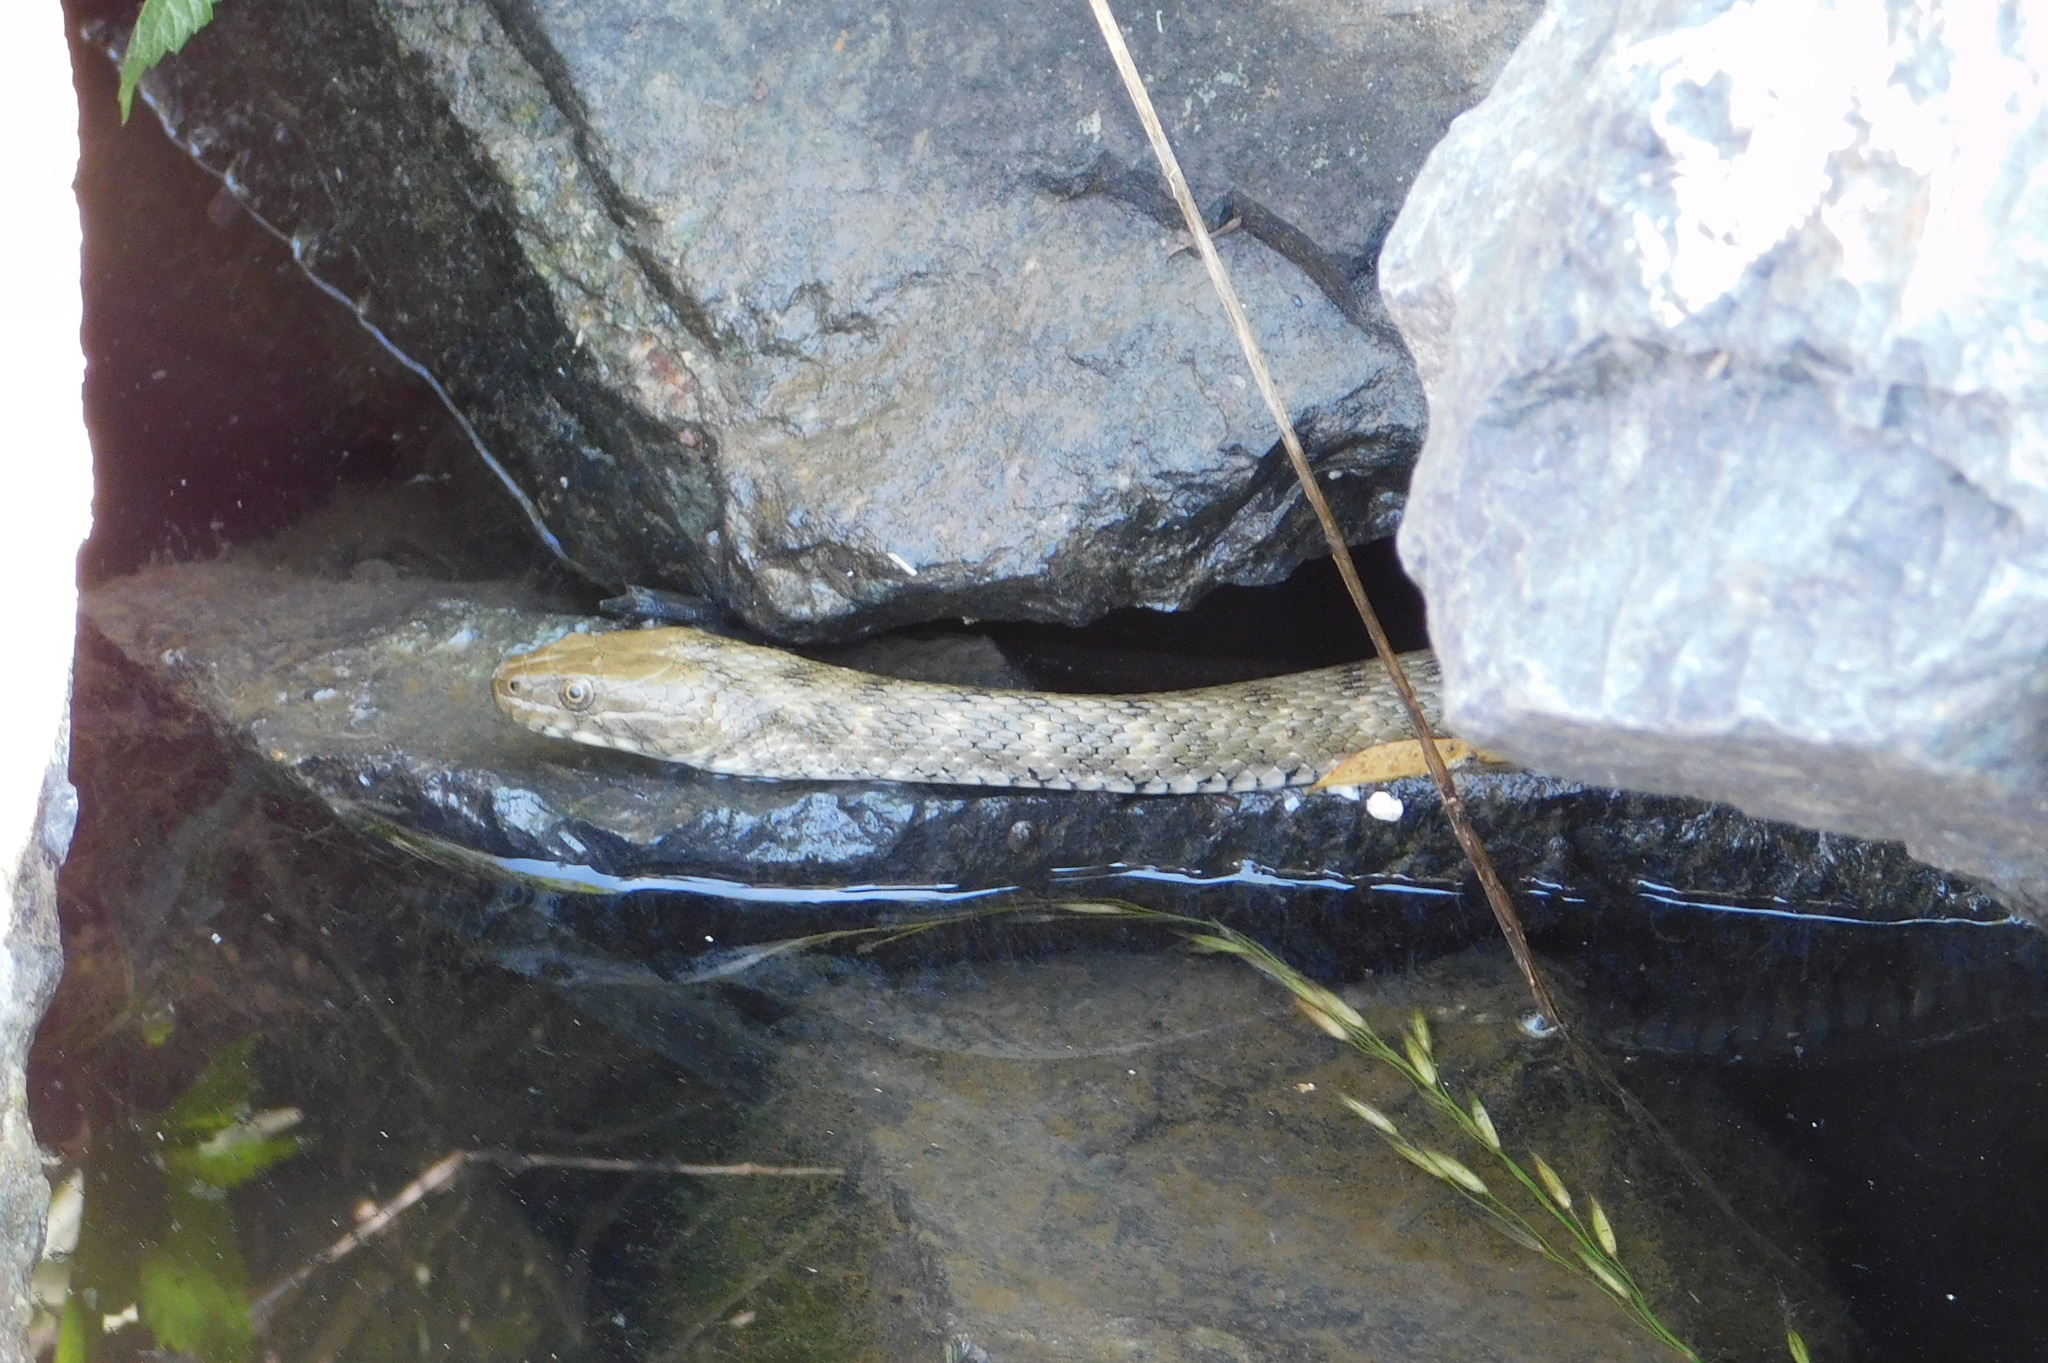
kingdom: Animalia
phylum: Chordata
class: Squamata
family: Colubridae
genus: Natrix
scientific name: Natrix tessellata
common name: Dice snake
